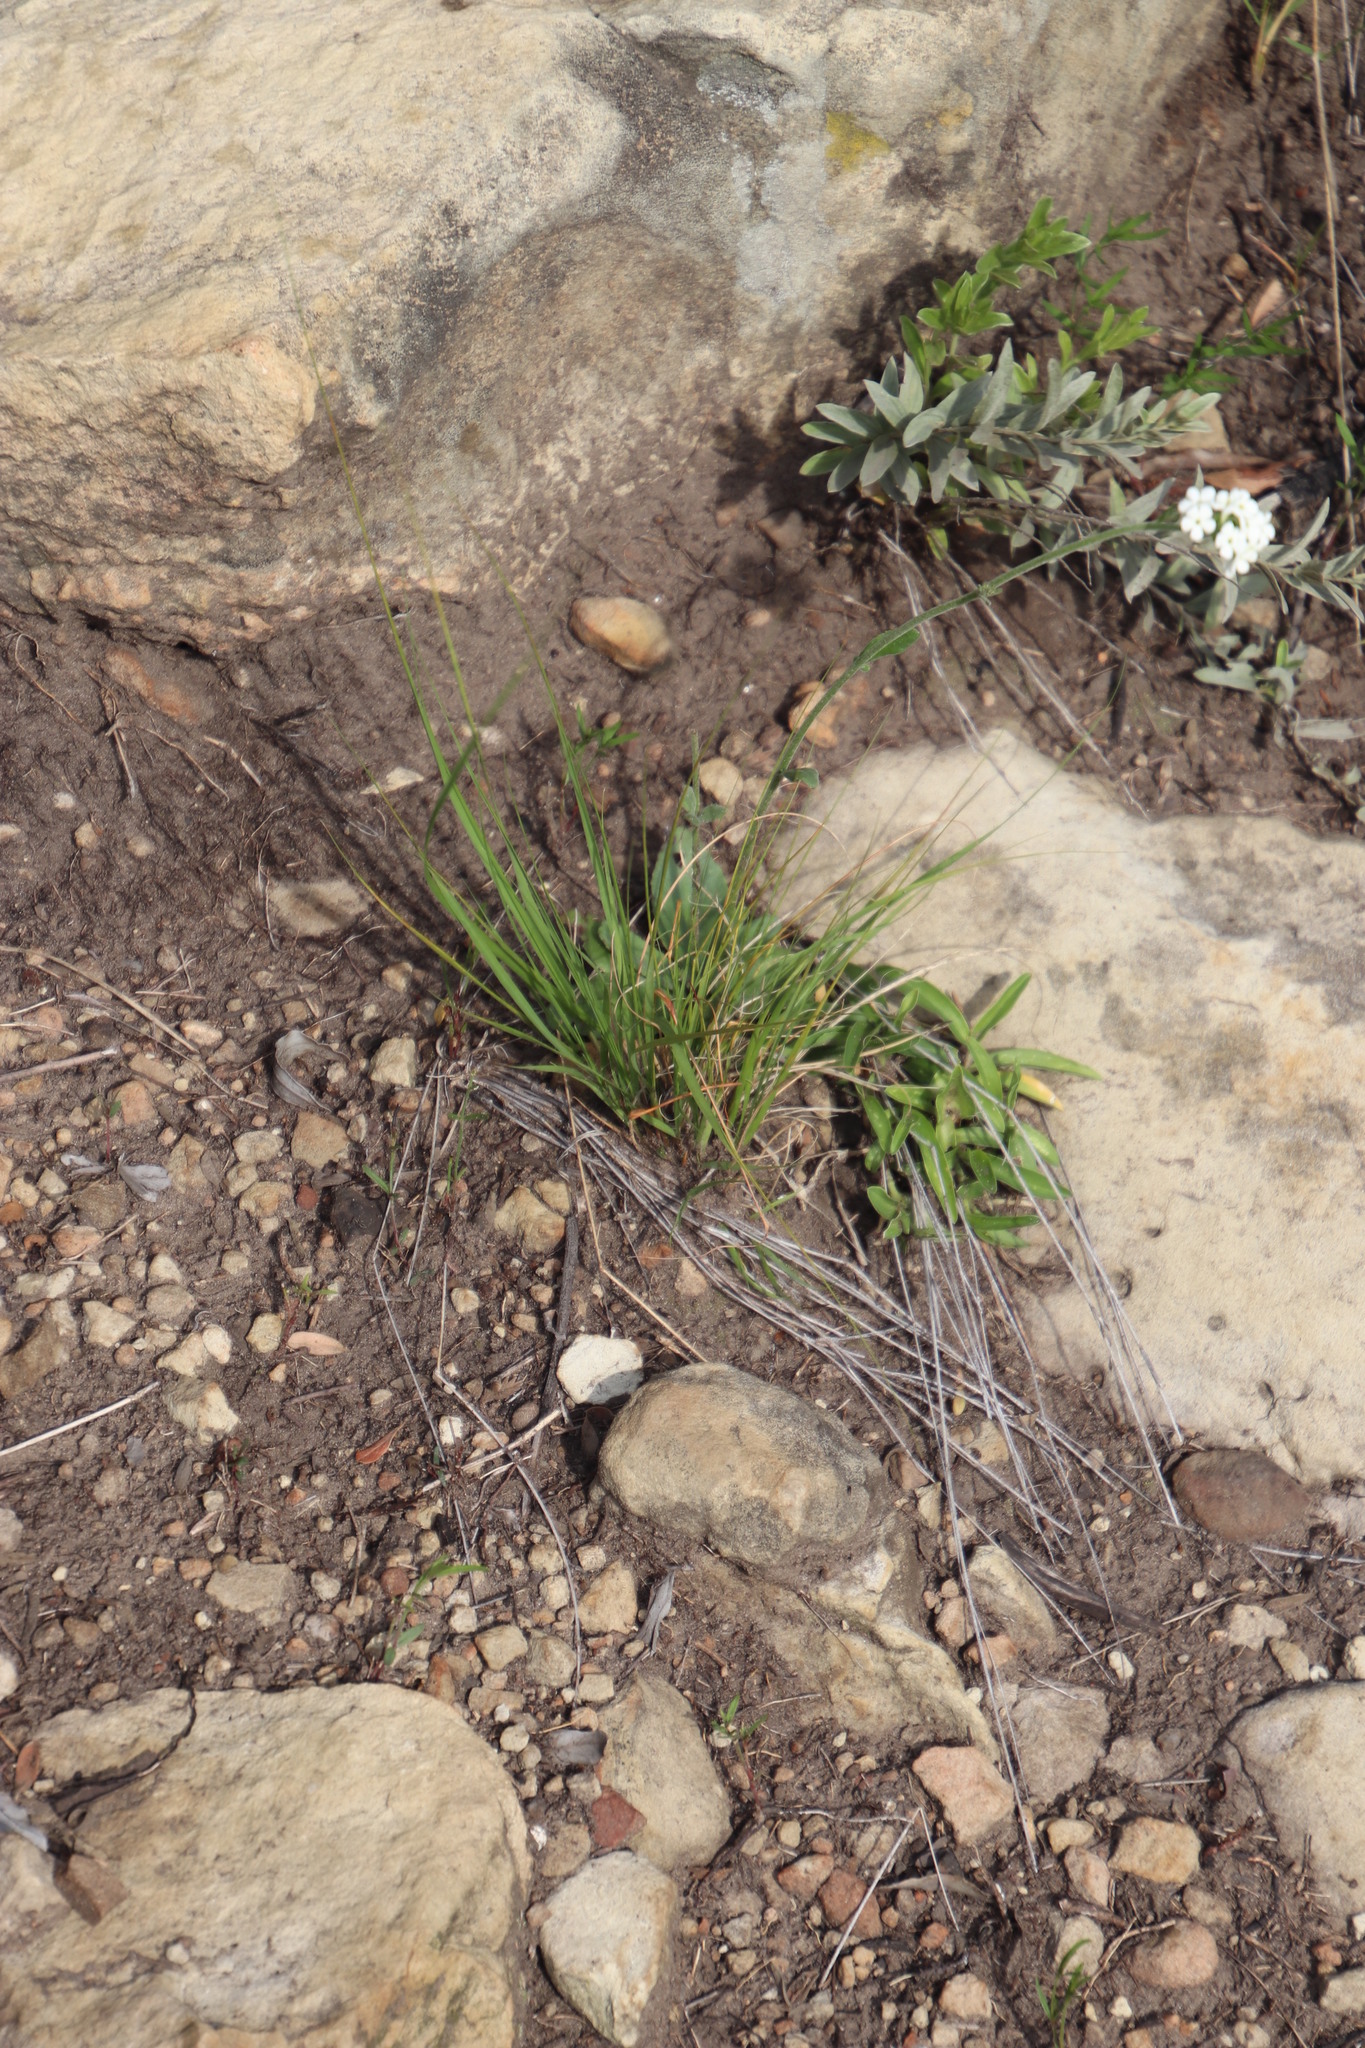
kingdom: Plantae
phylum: Tracheophyta
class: Magnoliopsida
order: Lamiales
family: Scrophulariaceae
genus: Manulea
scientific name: Manulea buchneroides
